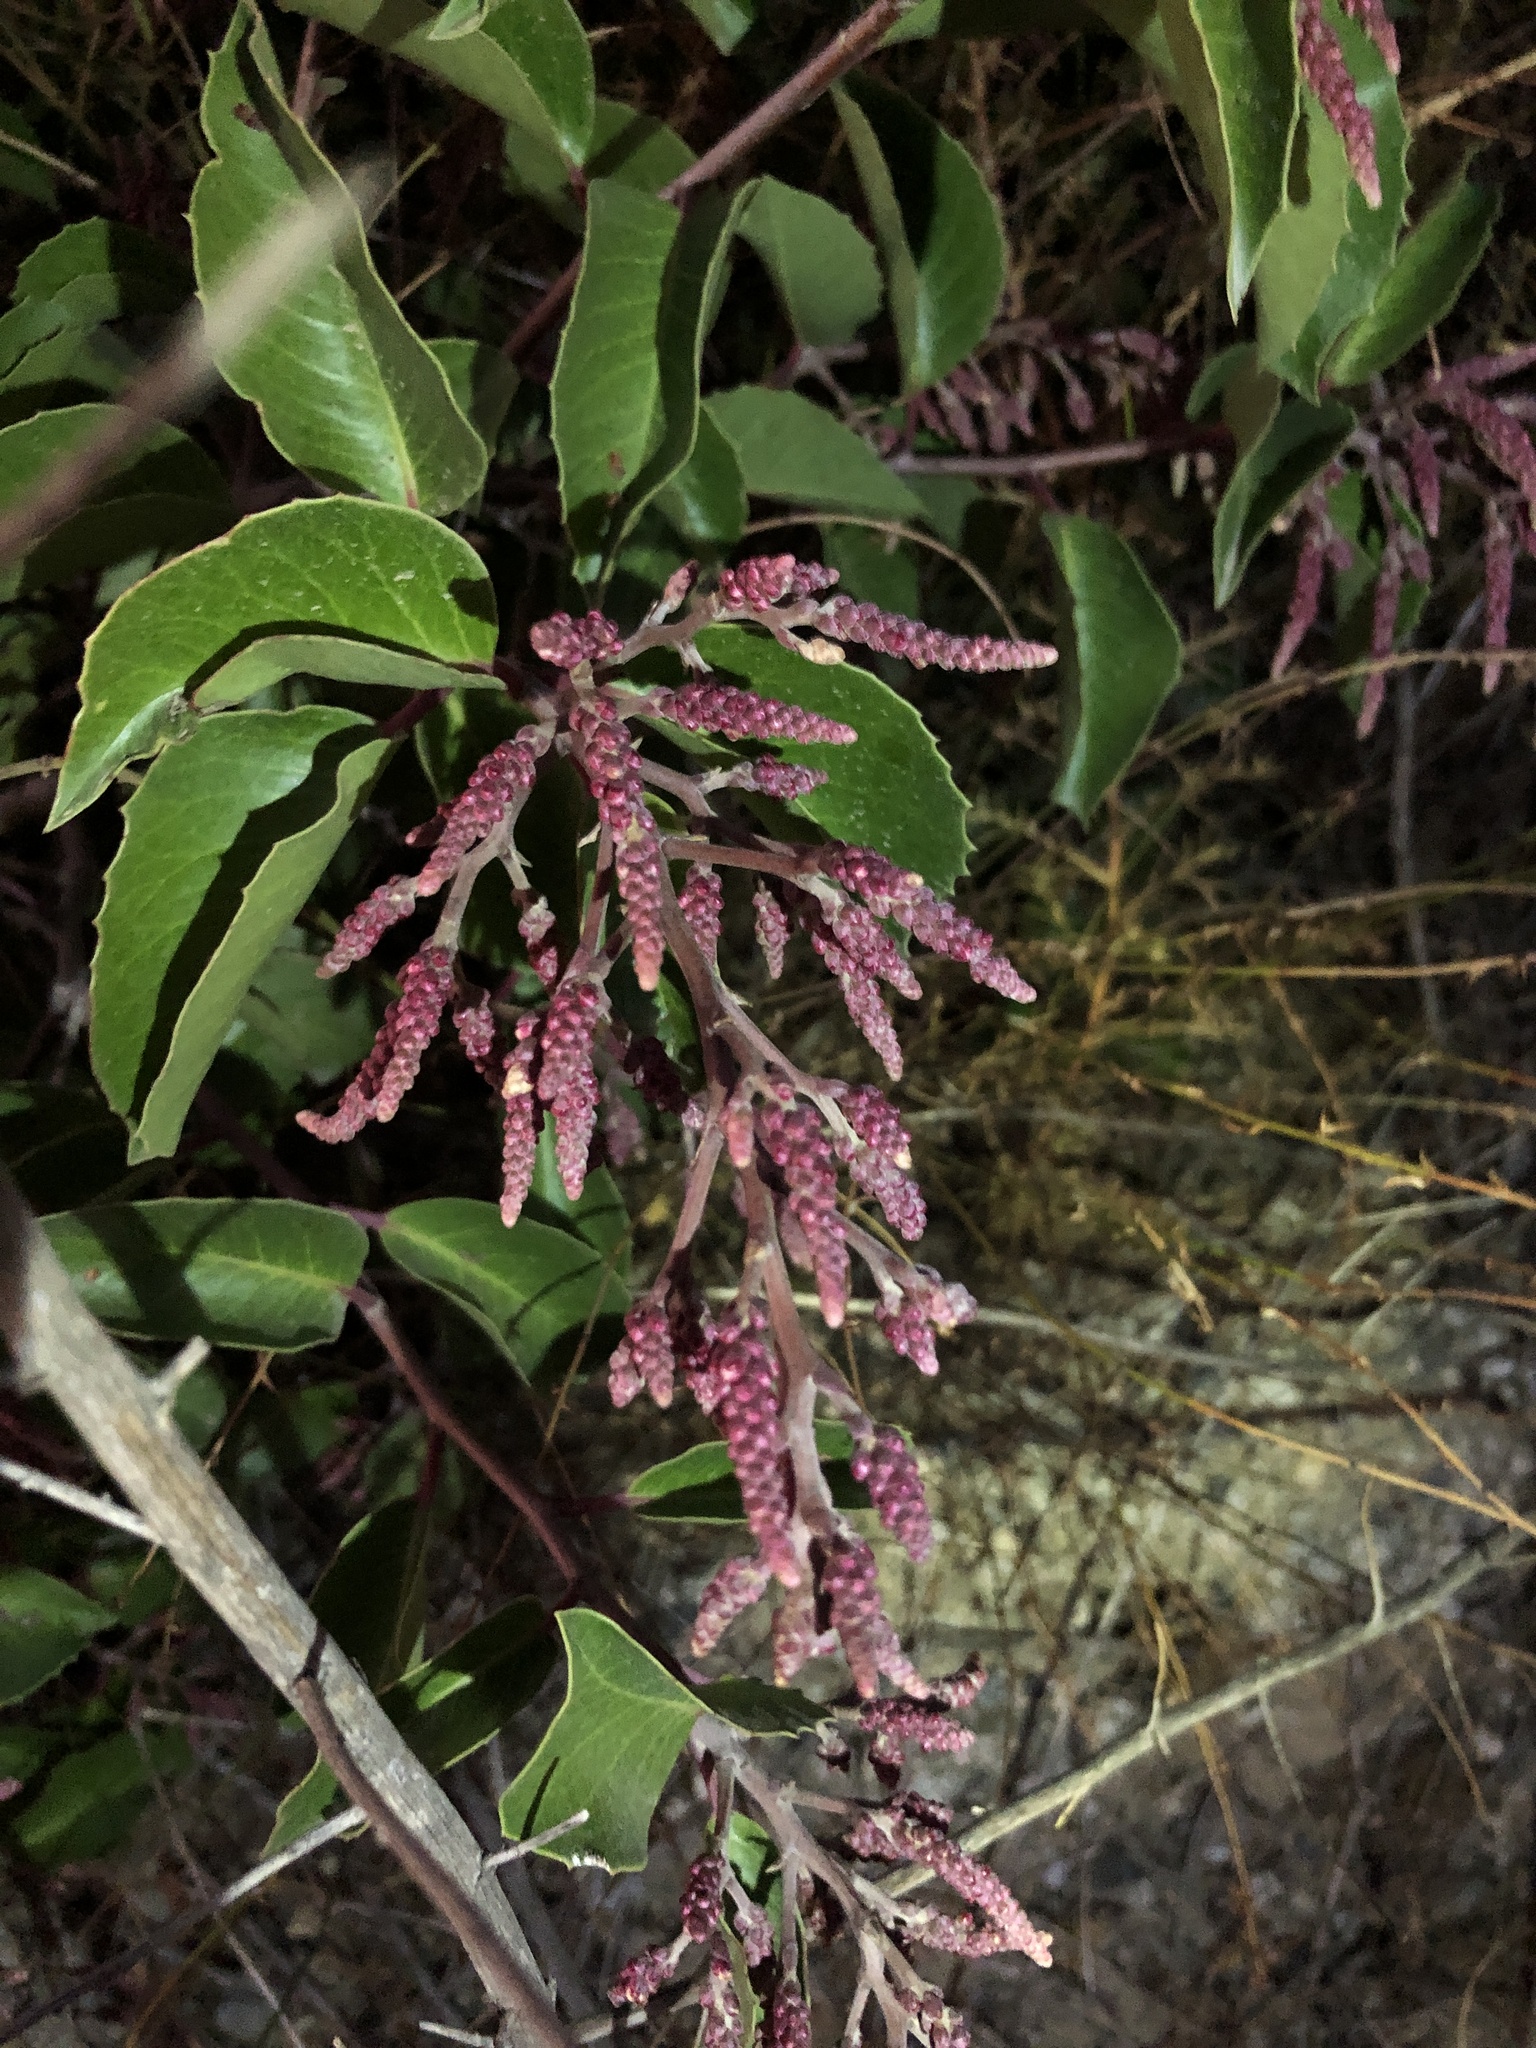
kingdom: Plantae
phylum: Tracheophyta
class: Magnoliopsida
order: Sapindales
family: Anacardiaceae
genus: Rhus
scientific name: Rhus ovata
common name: Sugar sumac
